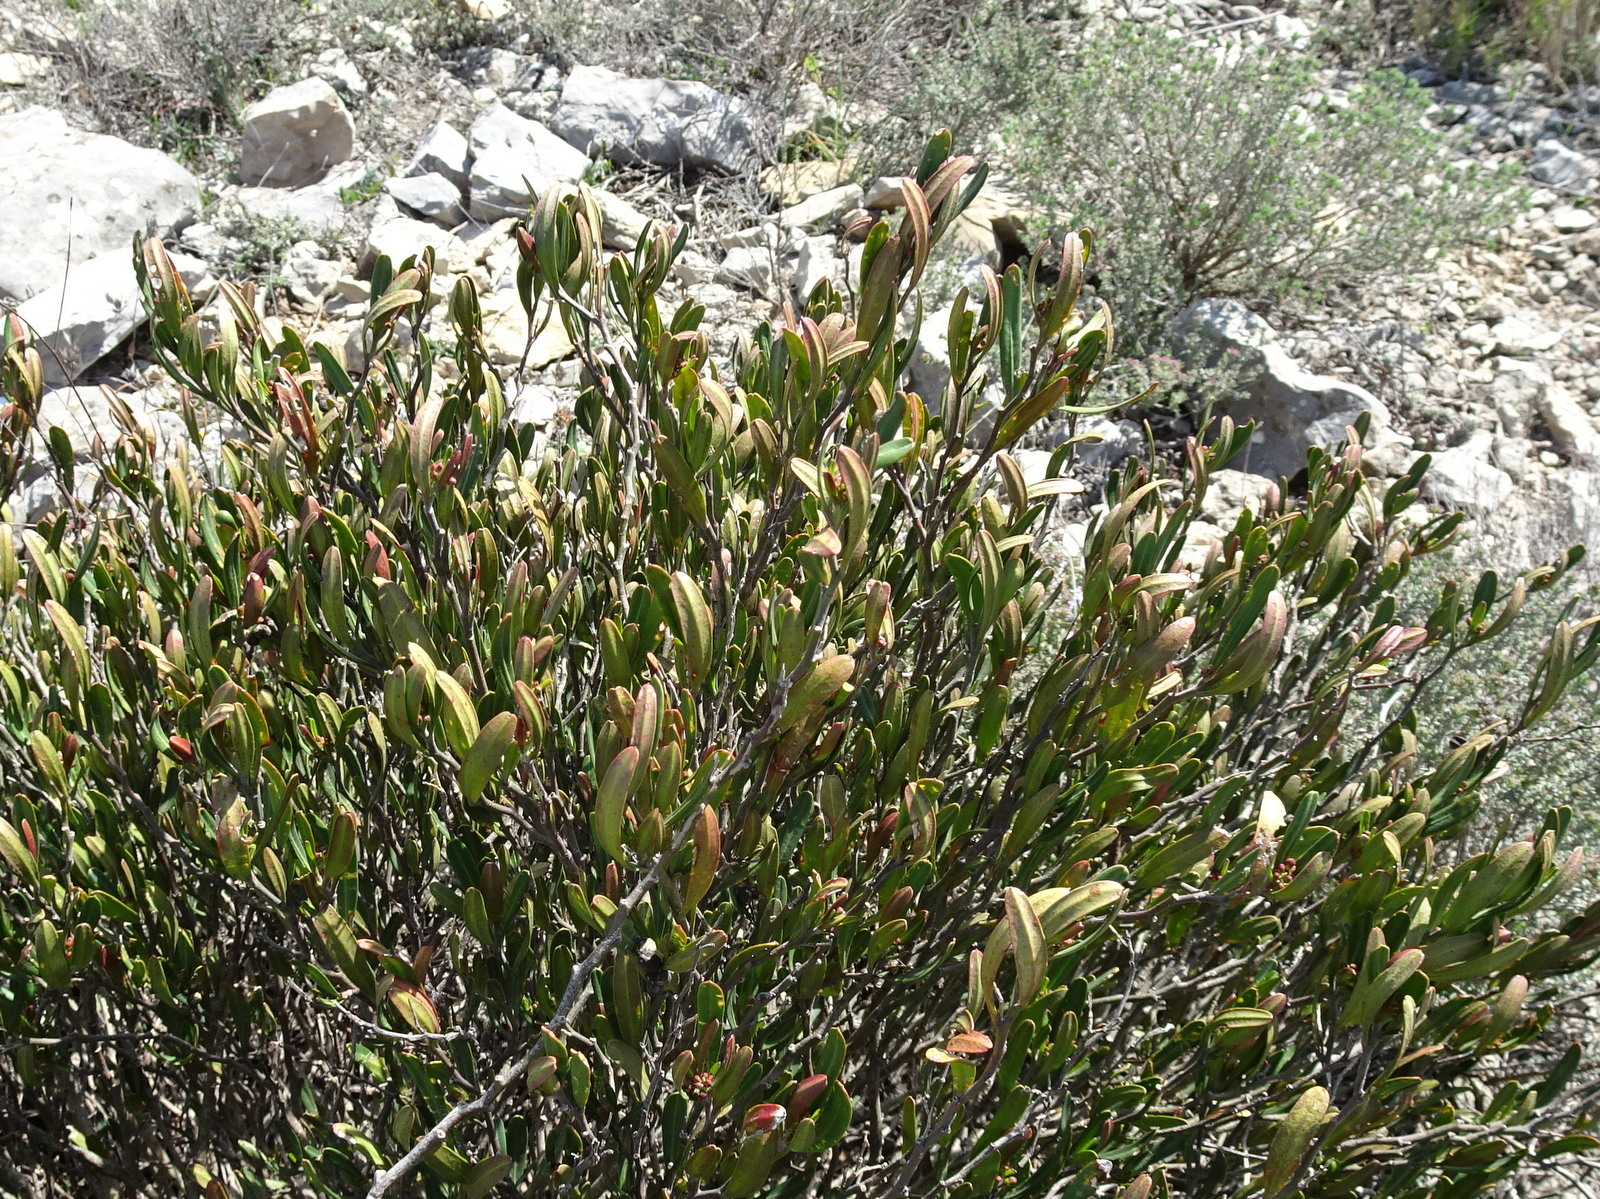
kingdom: Plantae
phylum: Tracheophyta
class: Magnoliopsida
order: Sapindales
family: Rutaceae
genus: Cneorum
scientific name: Cneorum tricoccon
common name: Spurge olive
